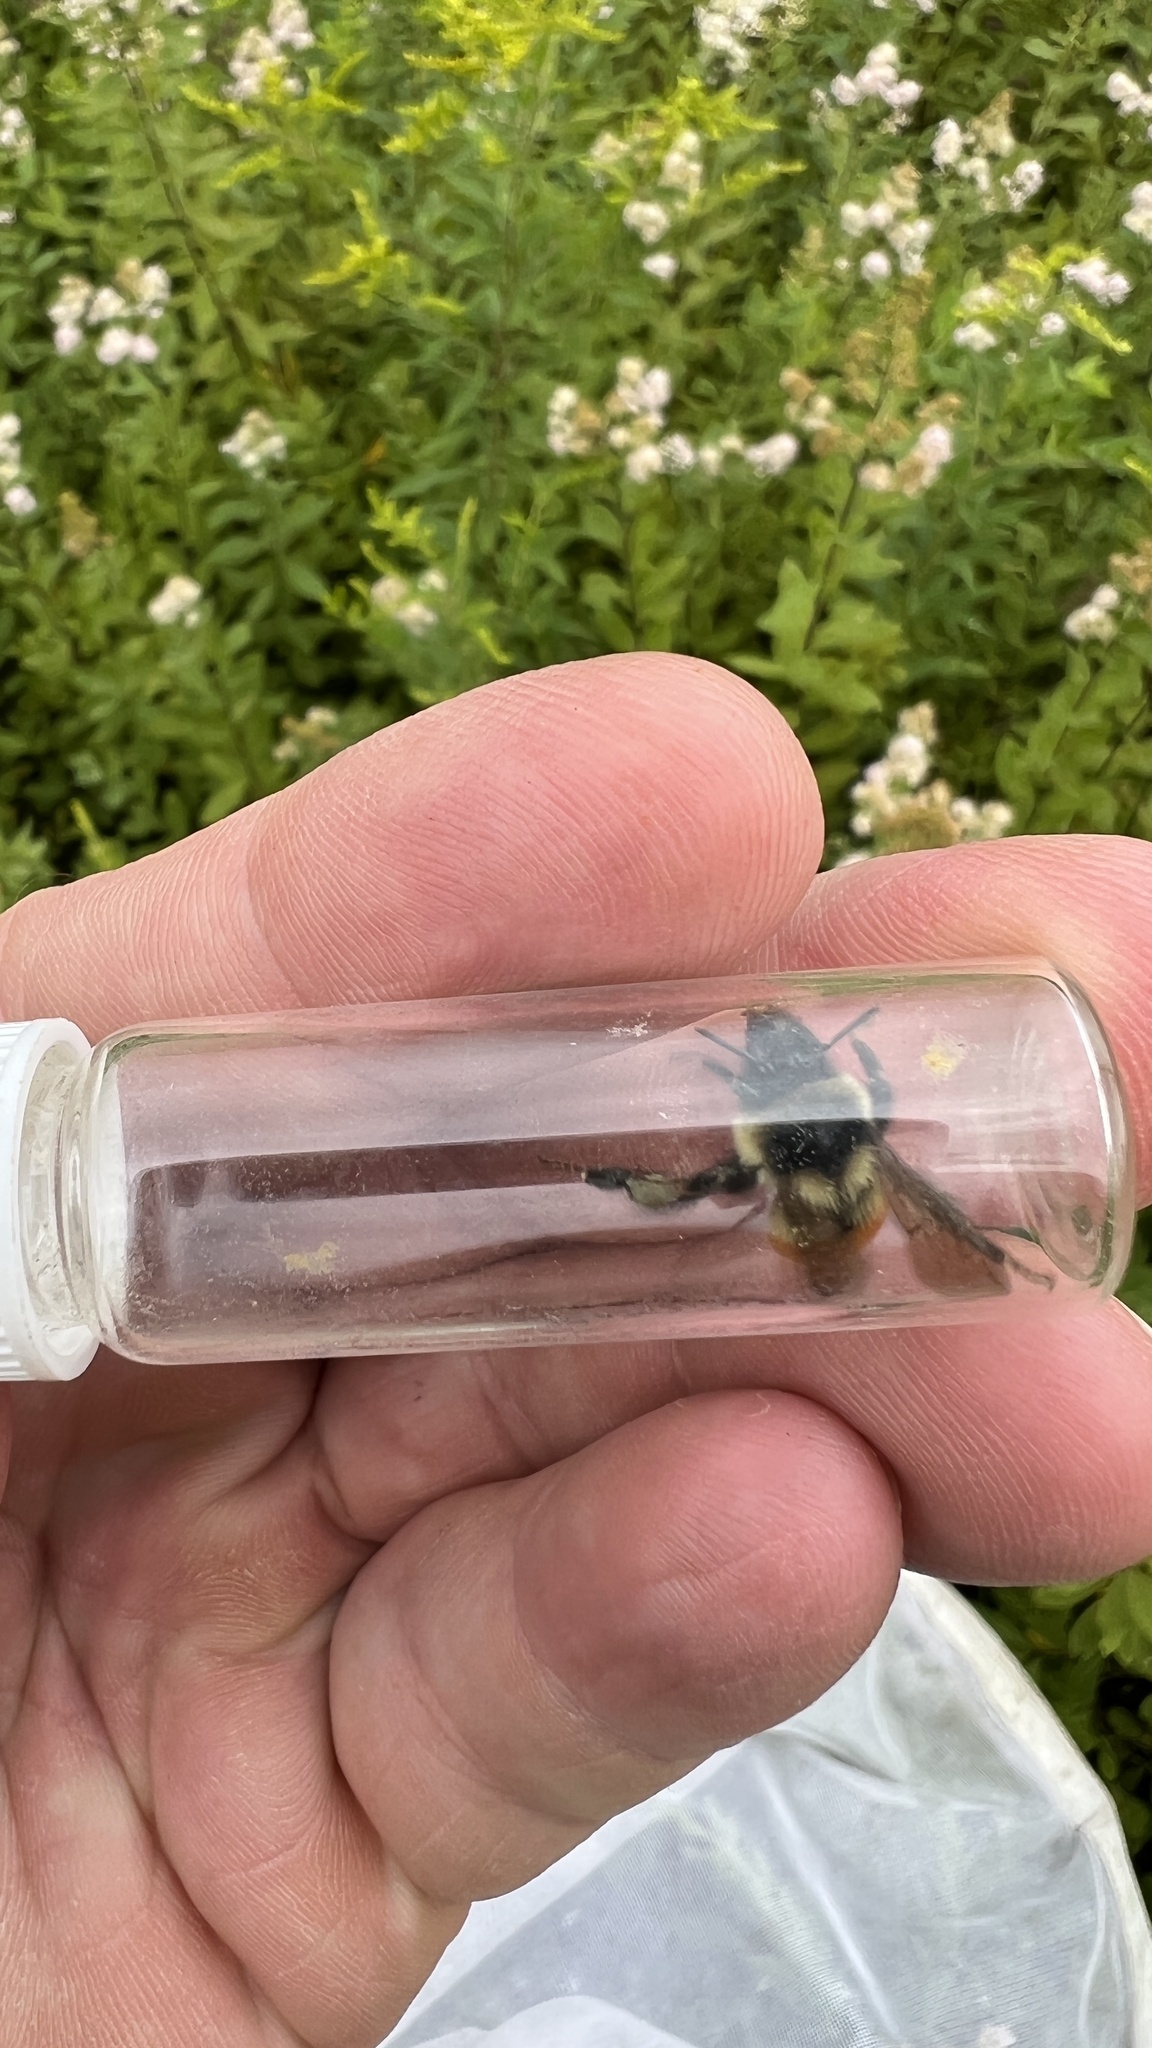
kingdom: Animalia
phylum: Arthropoda
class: Insecta
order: Hymenoptera
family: Apidae
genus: Bombus
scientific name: Bombus ternarius
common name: Tri-colored bumble bee
